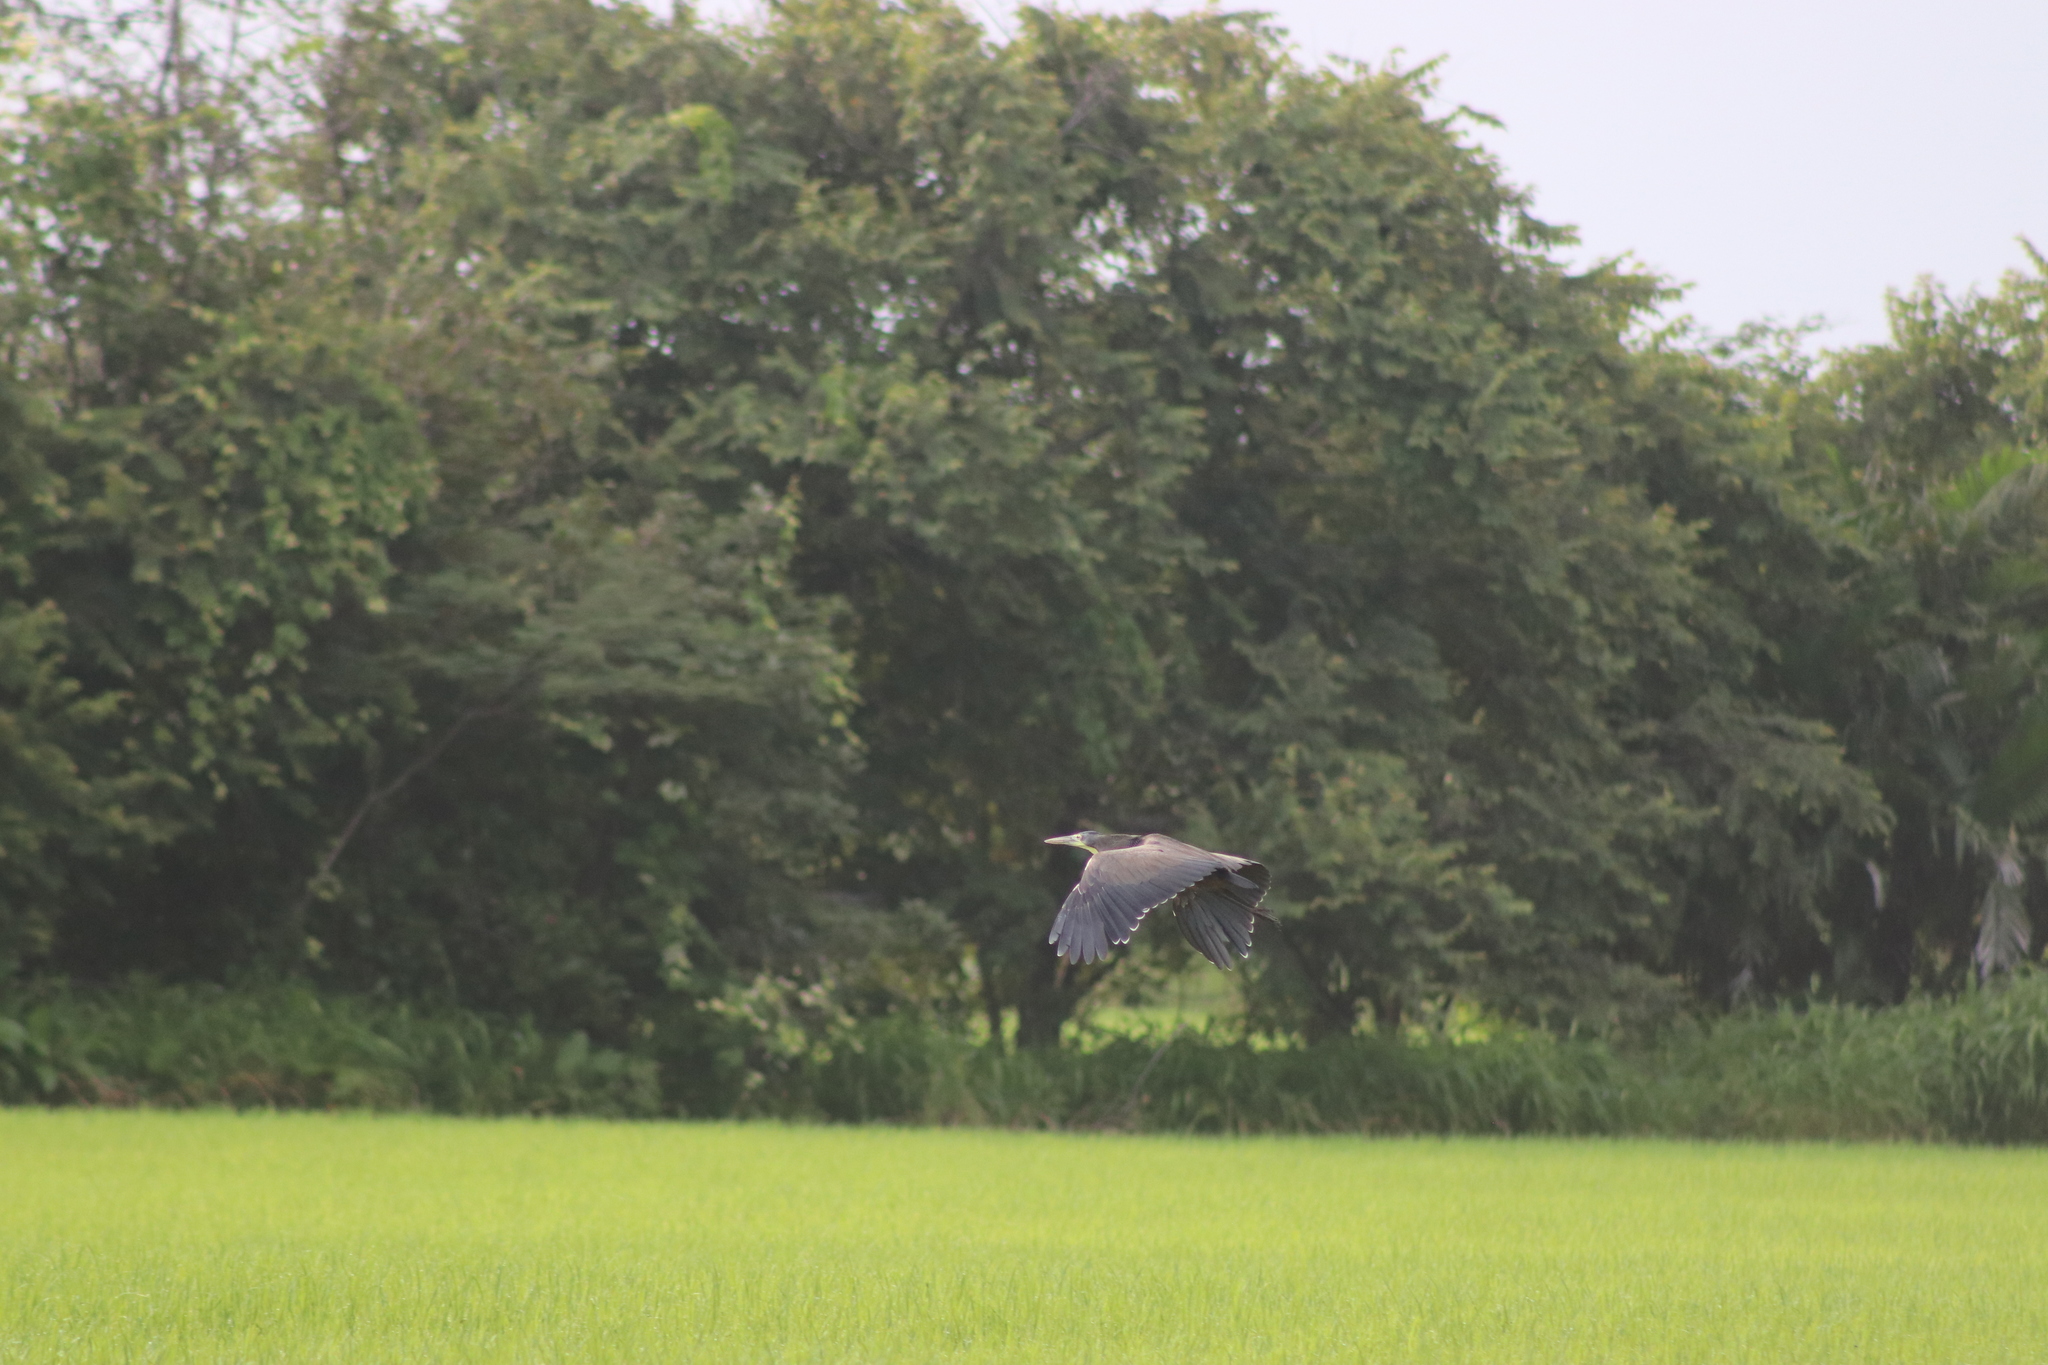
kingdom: Animalia
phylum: Chordata
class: Aves
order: Pelecaniformes
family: Ardeidae
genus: Tigrisoma
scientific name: Tigrisoma mexicanum
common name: Bare-throated tiger-heron
